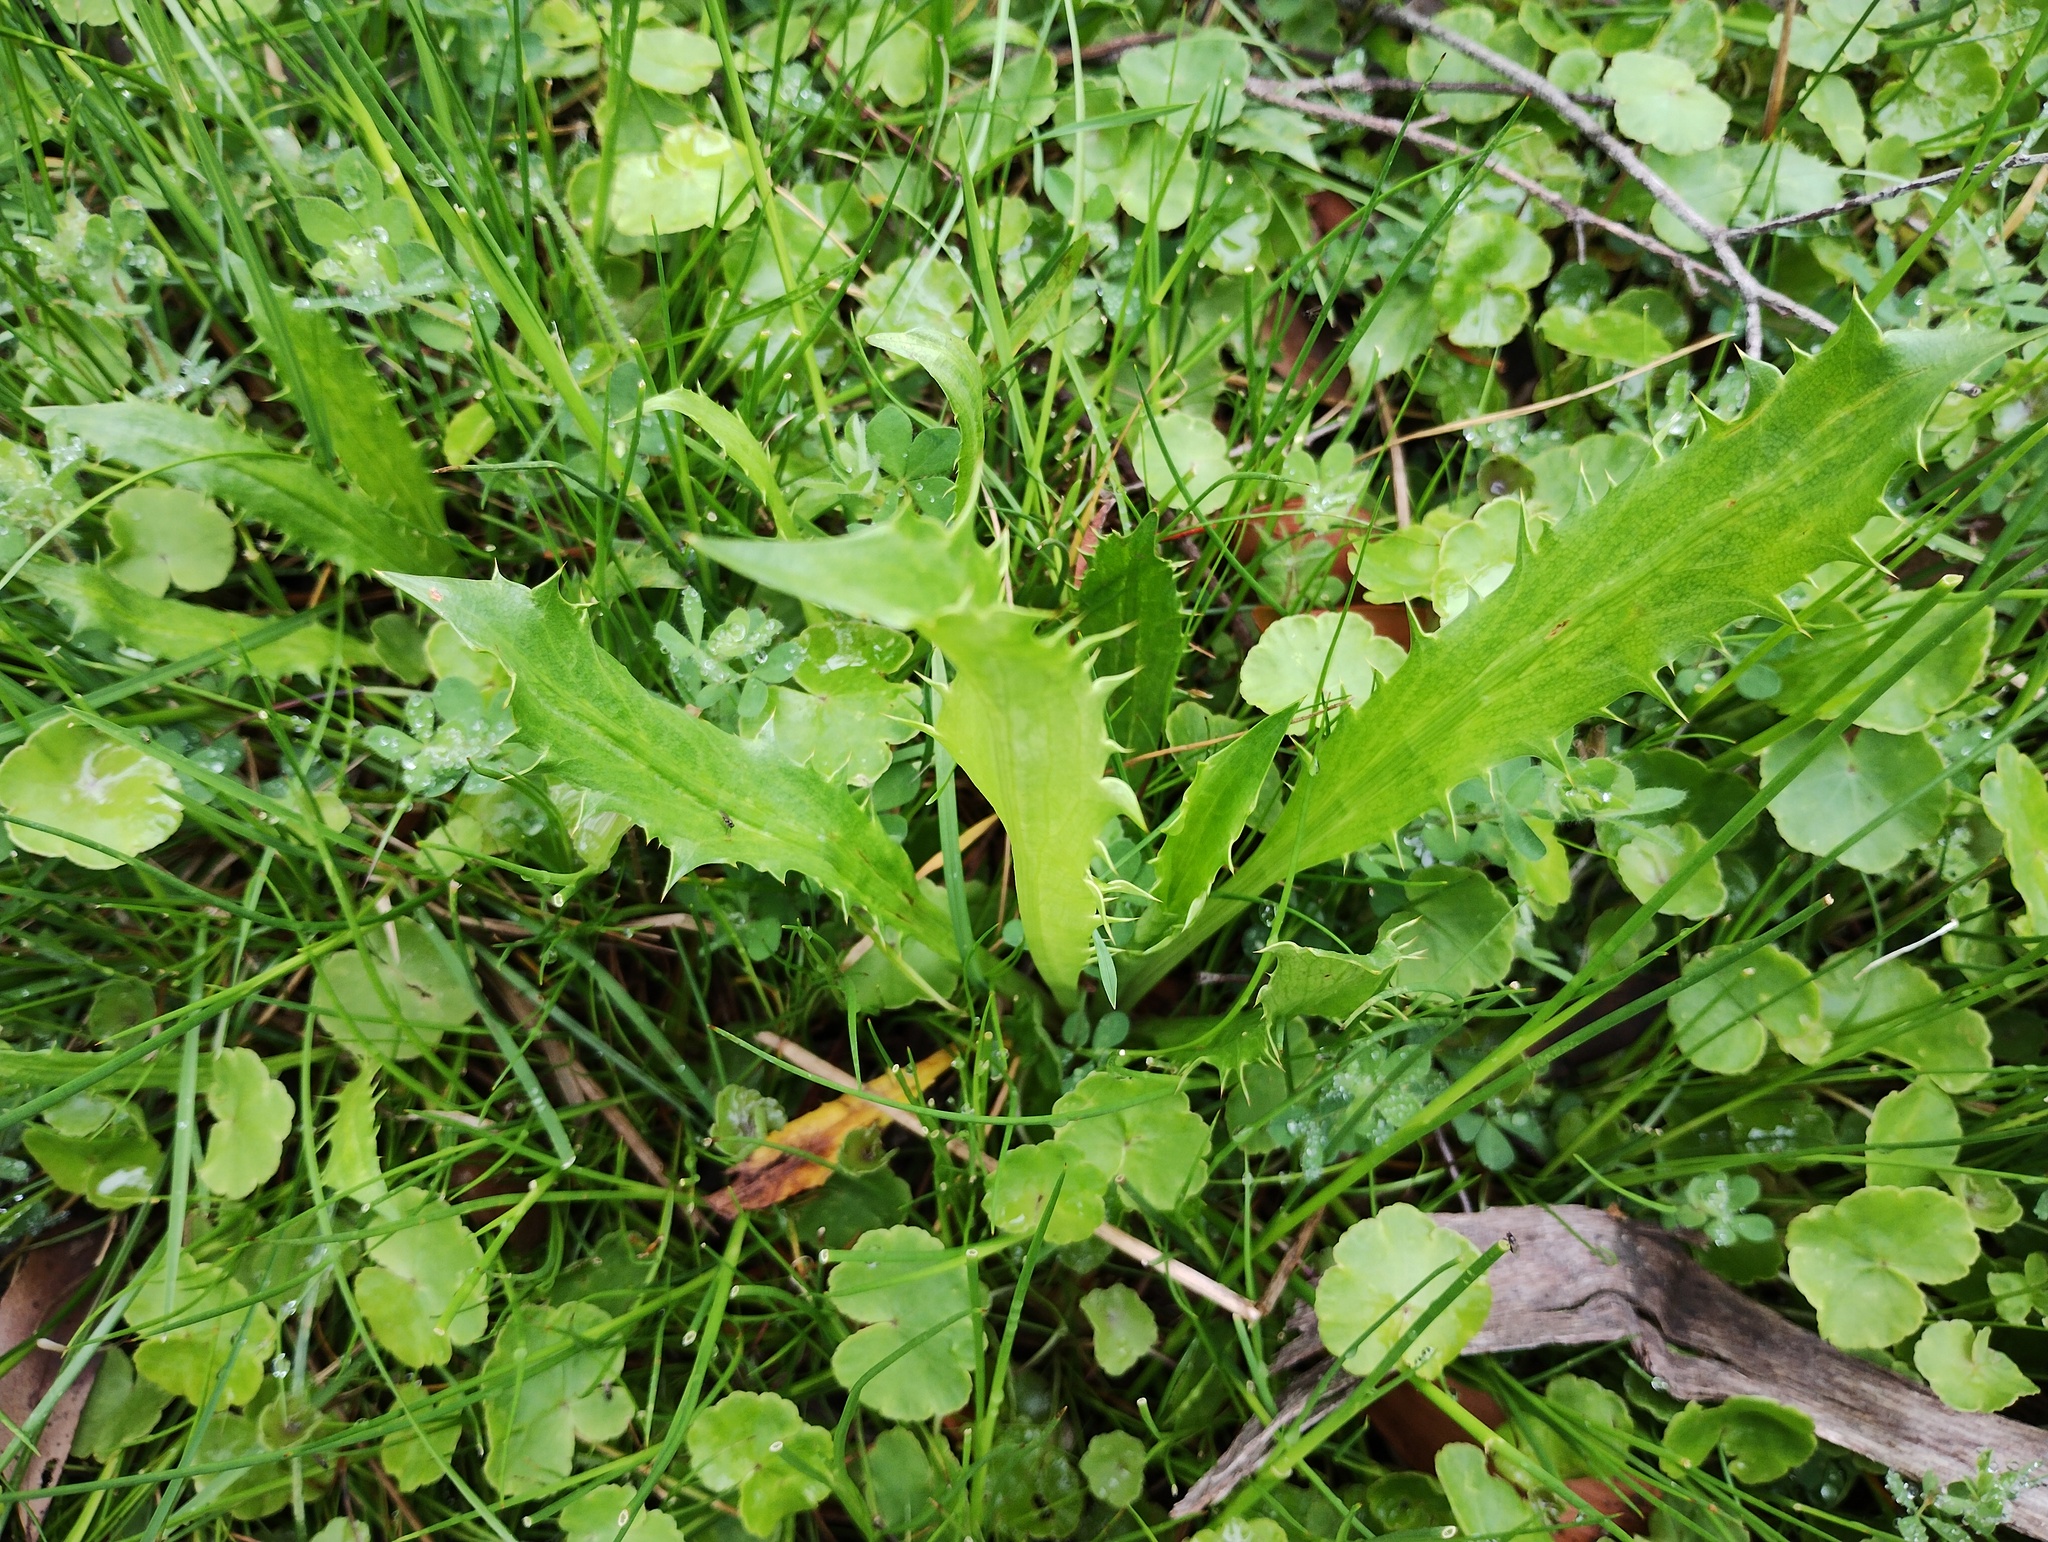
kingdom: Plantae
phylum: Tracheophyta
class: Magnoliopsida
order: Apiales
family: Apiaceae
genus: Eryngium
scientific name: Eryngium vesiculosum
